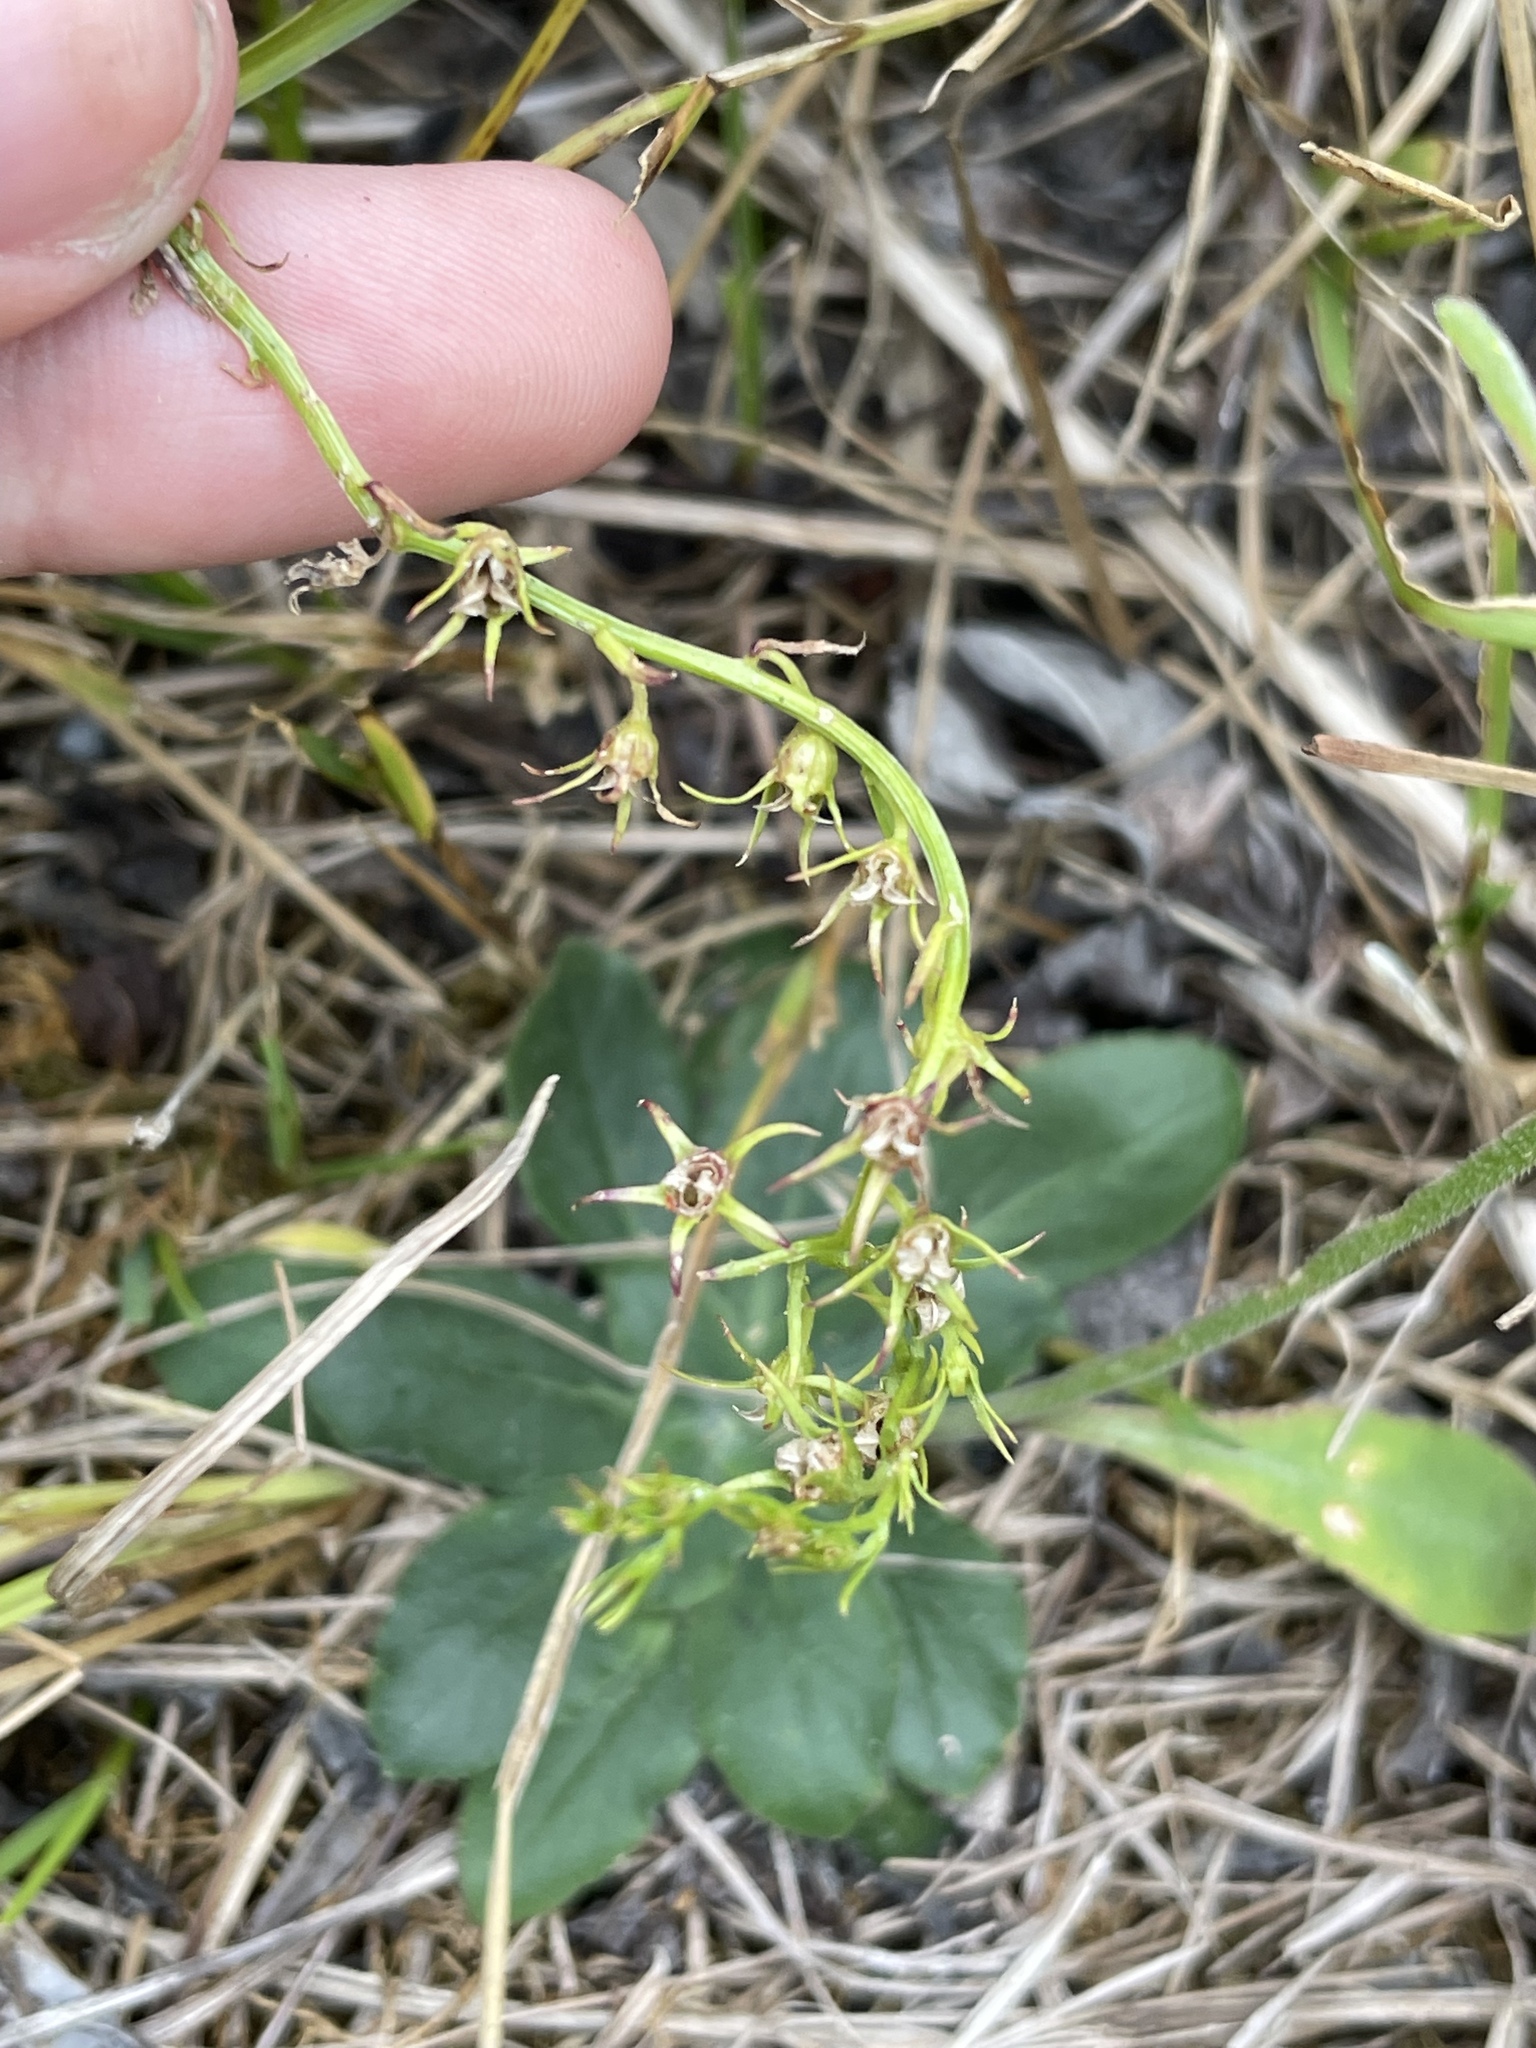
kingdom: Plantae
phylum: Tracheophyta
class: Magnoliopsida
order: Asterales
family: Campanulaceae
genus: Lobelia
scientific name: Lobelia spicata
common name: Pale-spike lobelia
